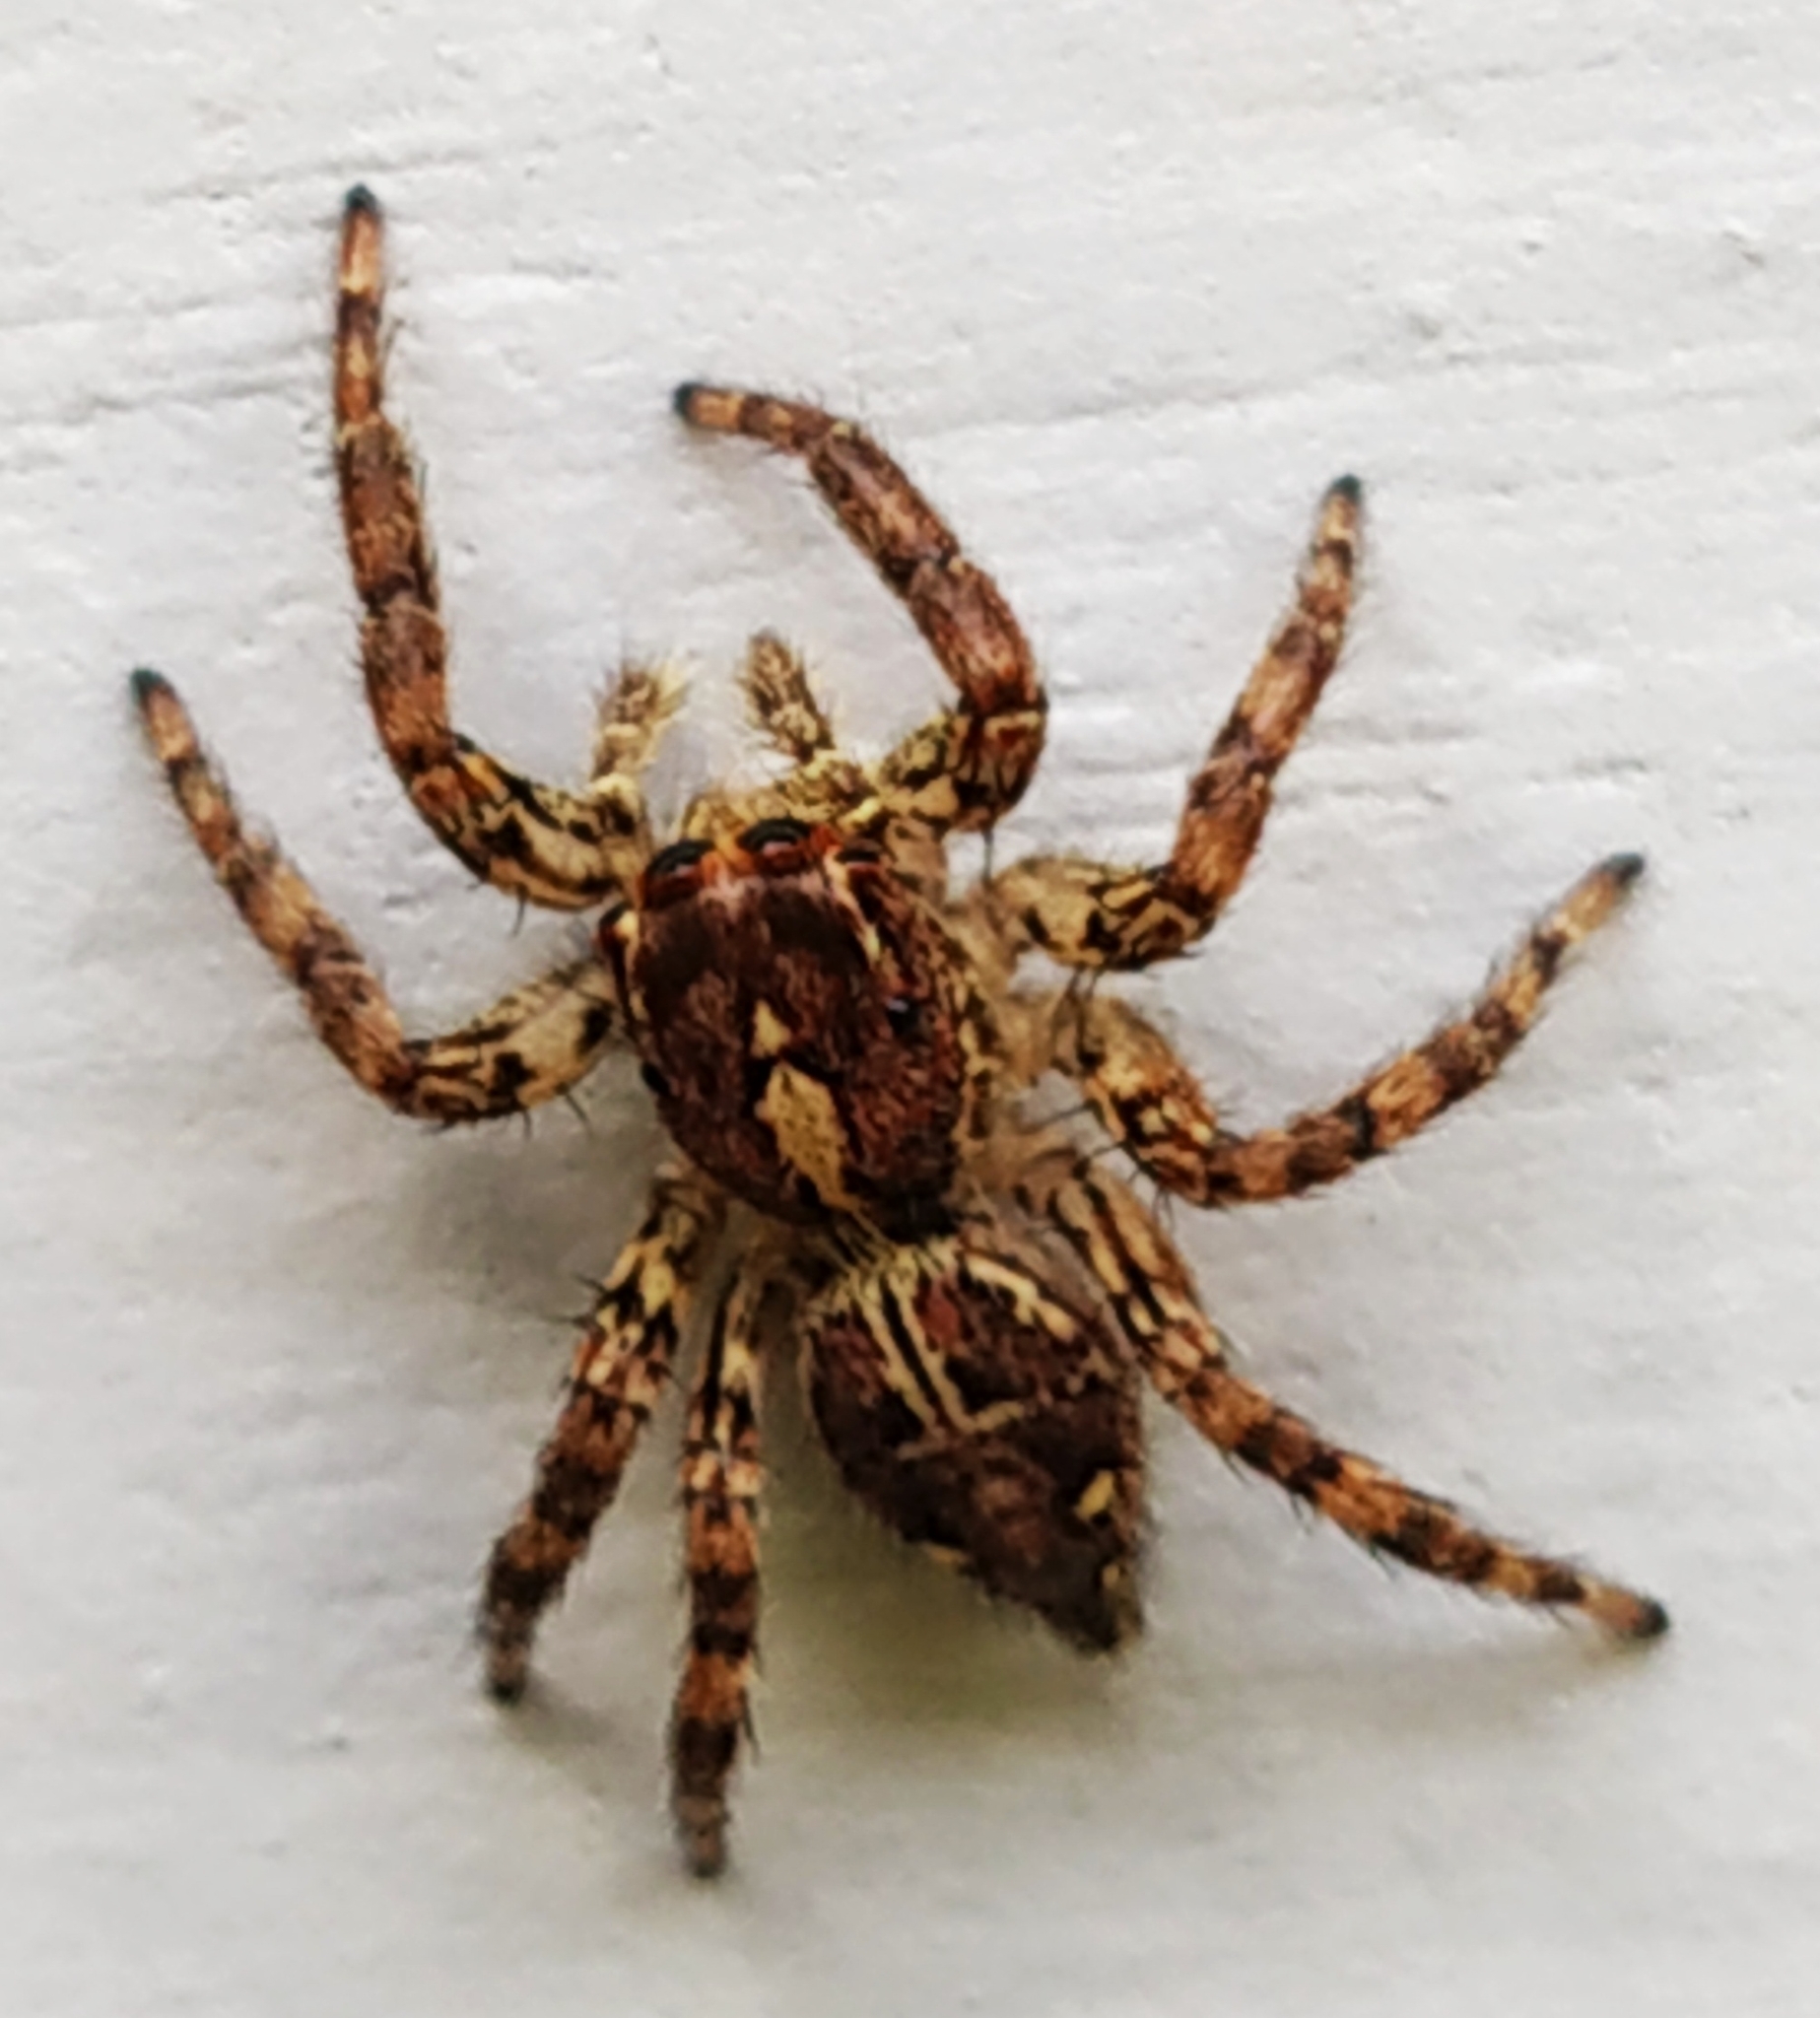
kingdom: Animalia
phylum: Arthropoda
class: Arachnida
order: Araneae
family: Salticidae
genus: Plexippus
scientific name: Plexippus paykulli
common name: Pantropical jumper
